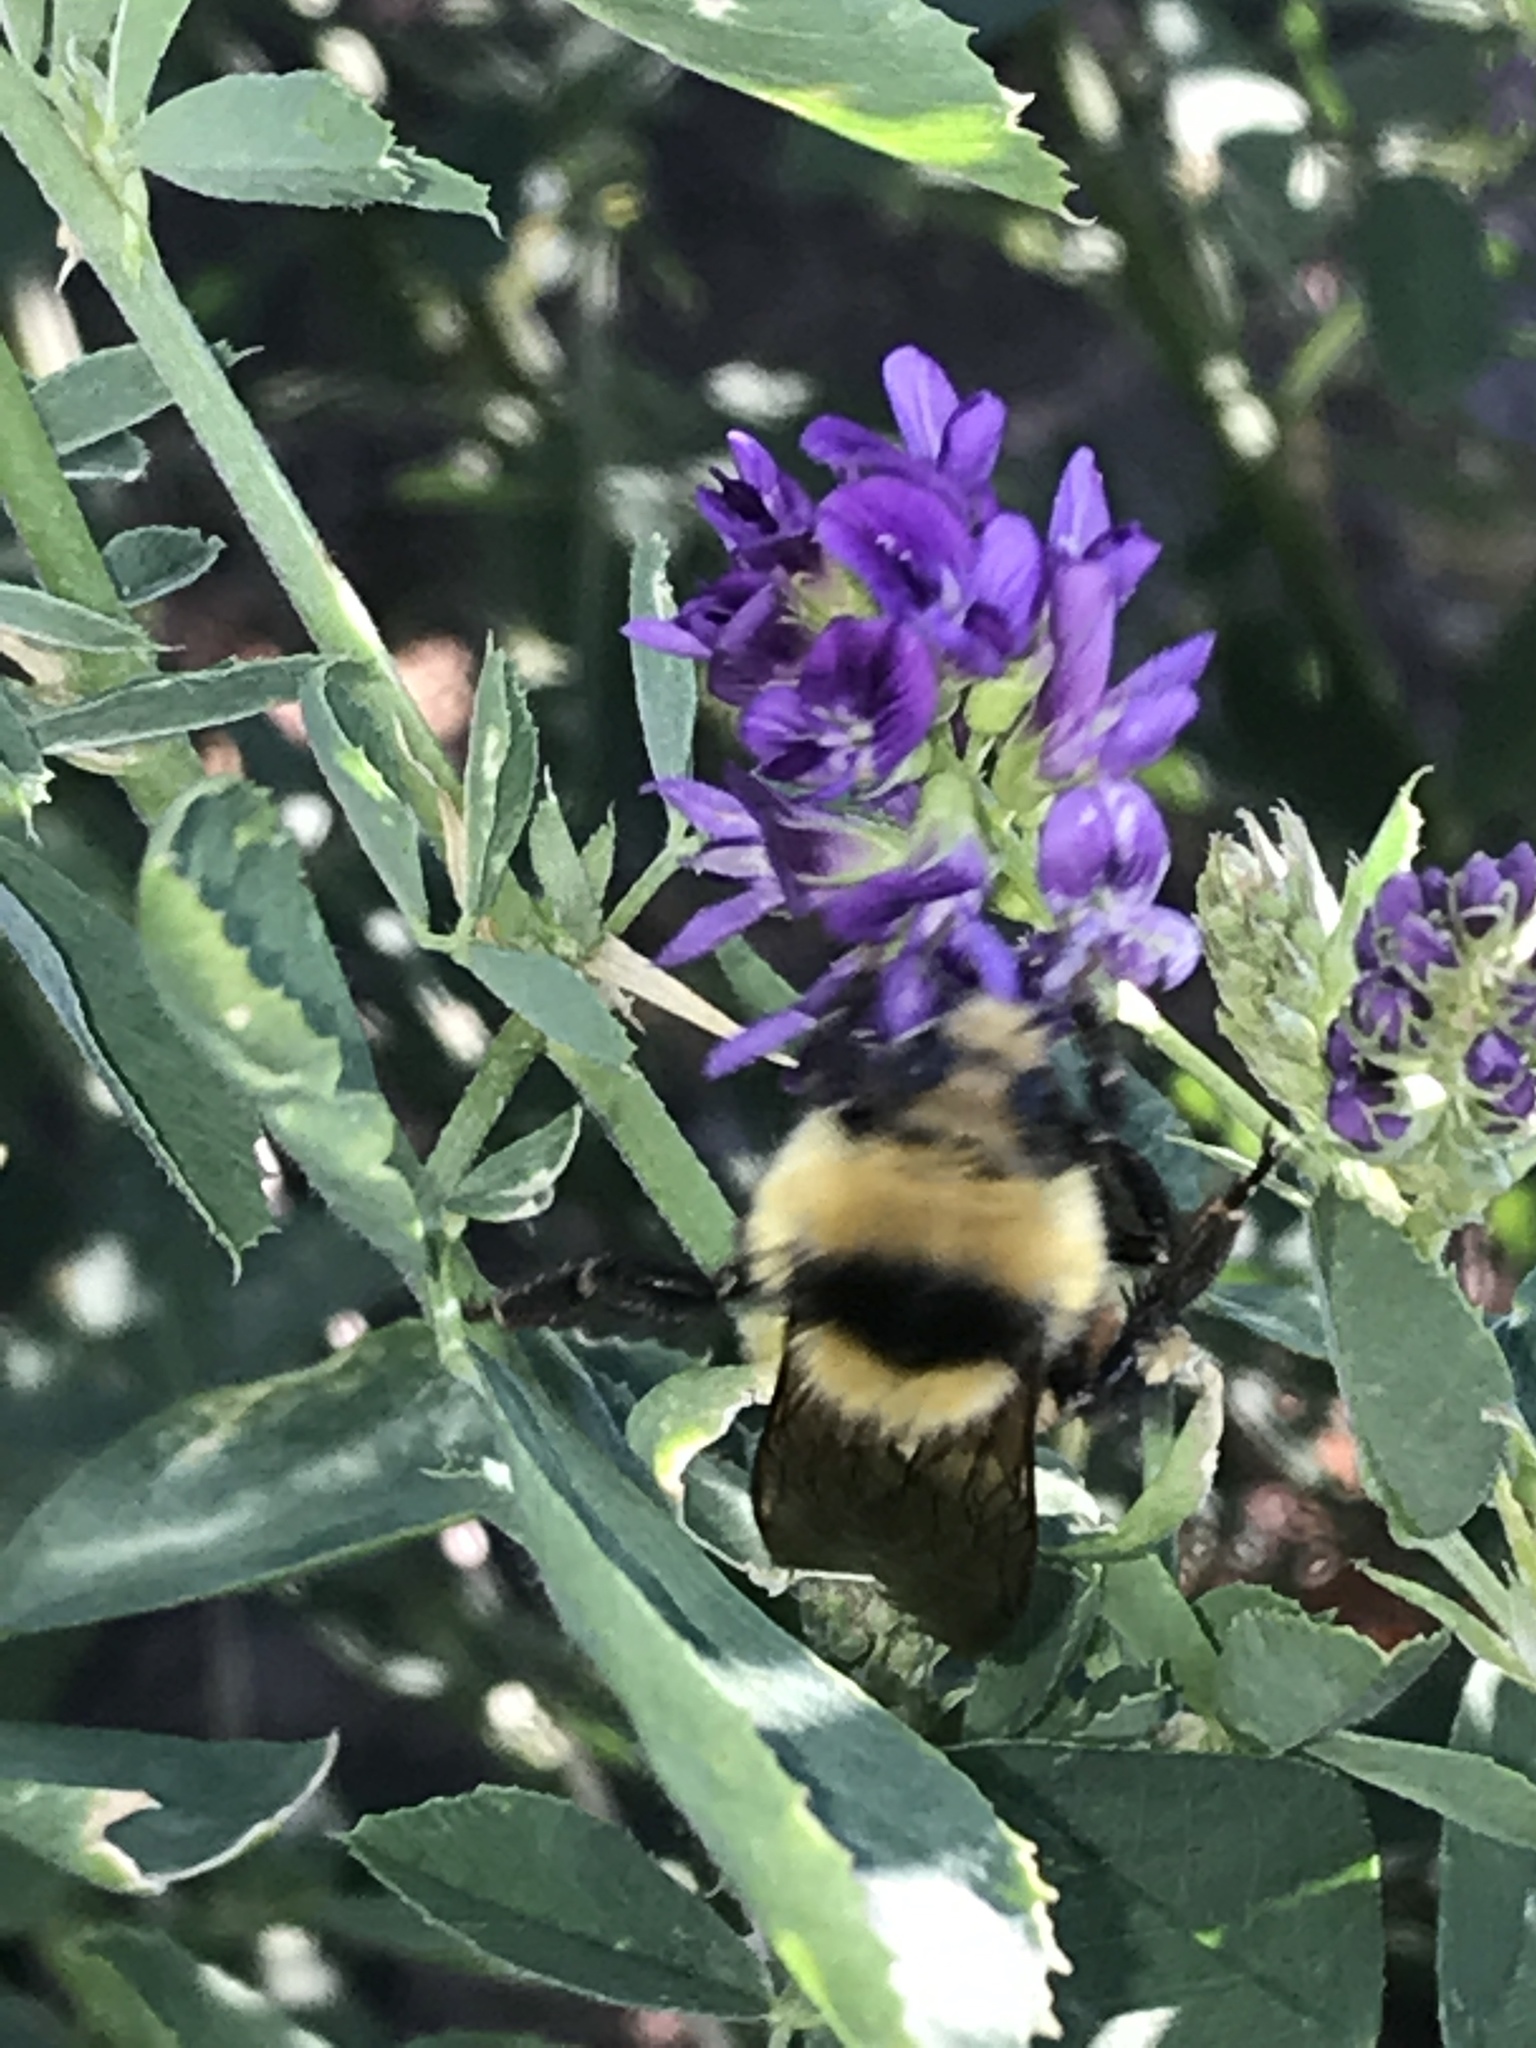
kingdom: Animalia
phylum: Arthropoda
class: Insecta
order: Hymenoptera
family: Apidae
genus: Bombus
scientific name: Bombus huntii
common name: Hunt bumble bee
